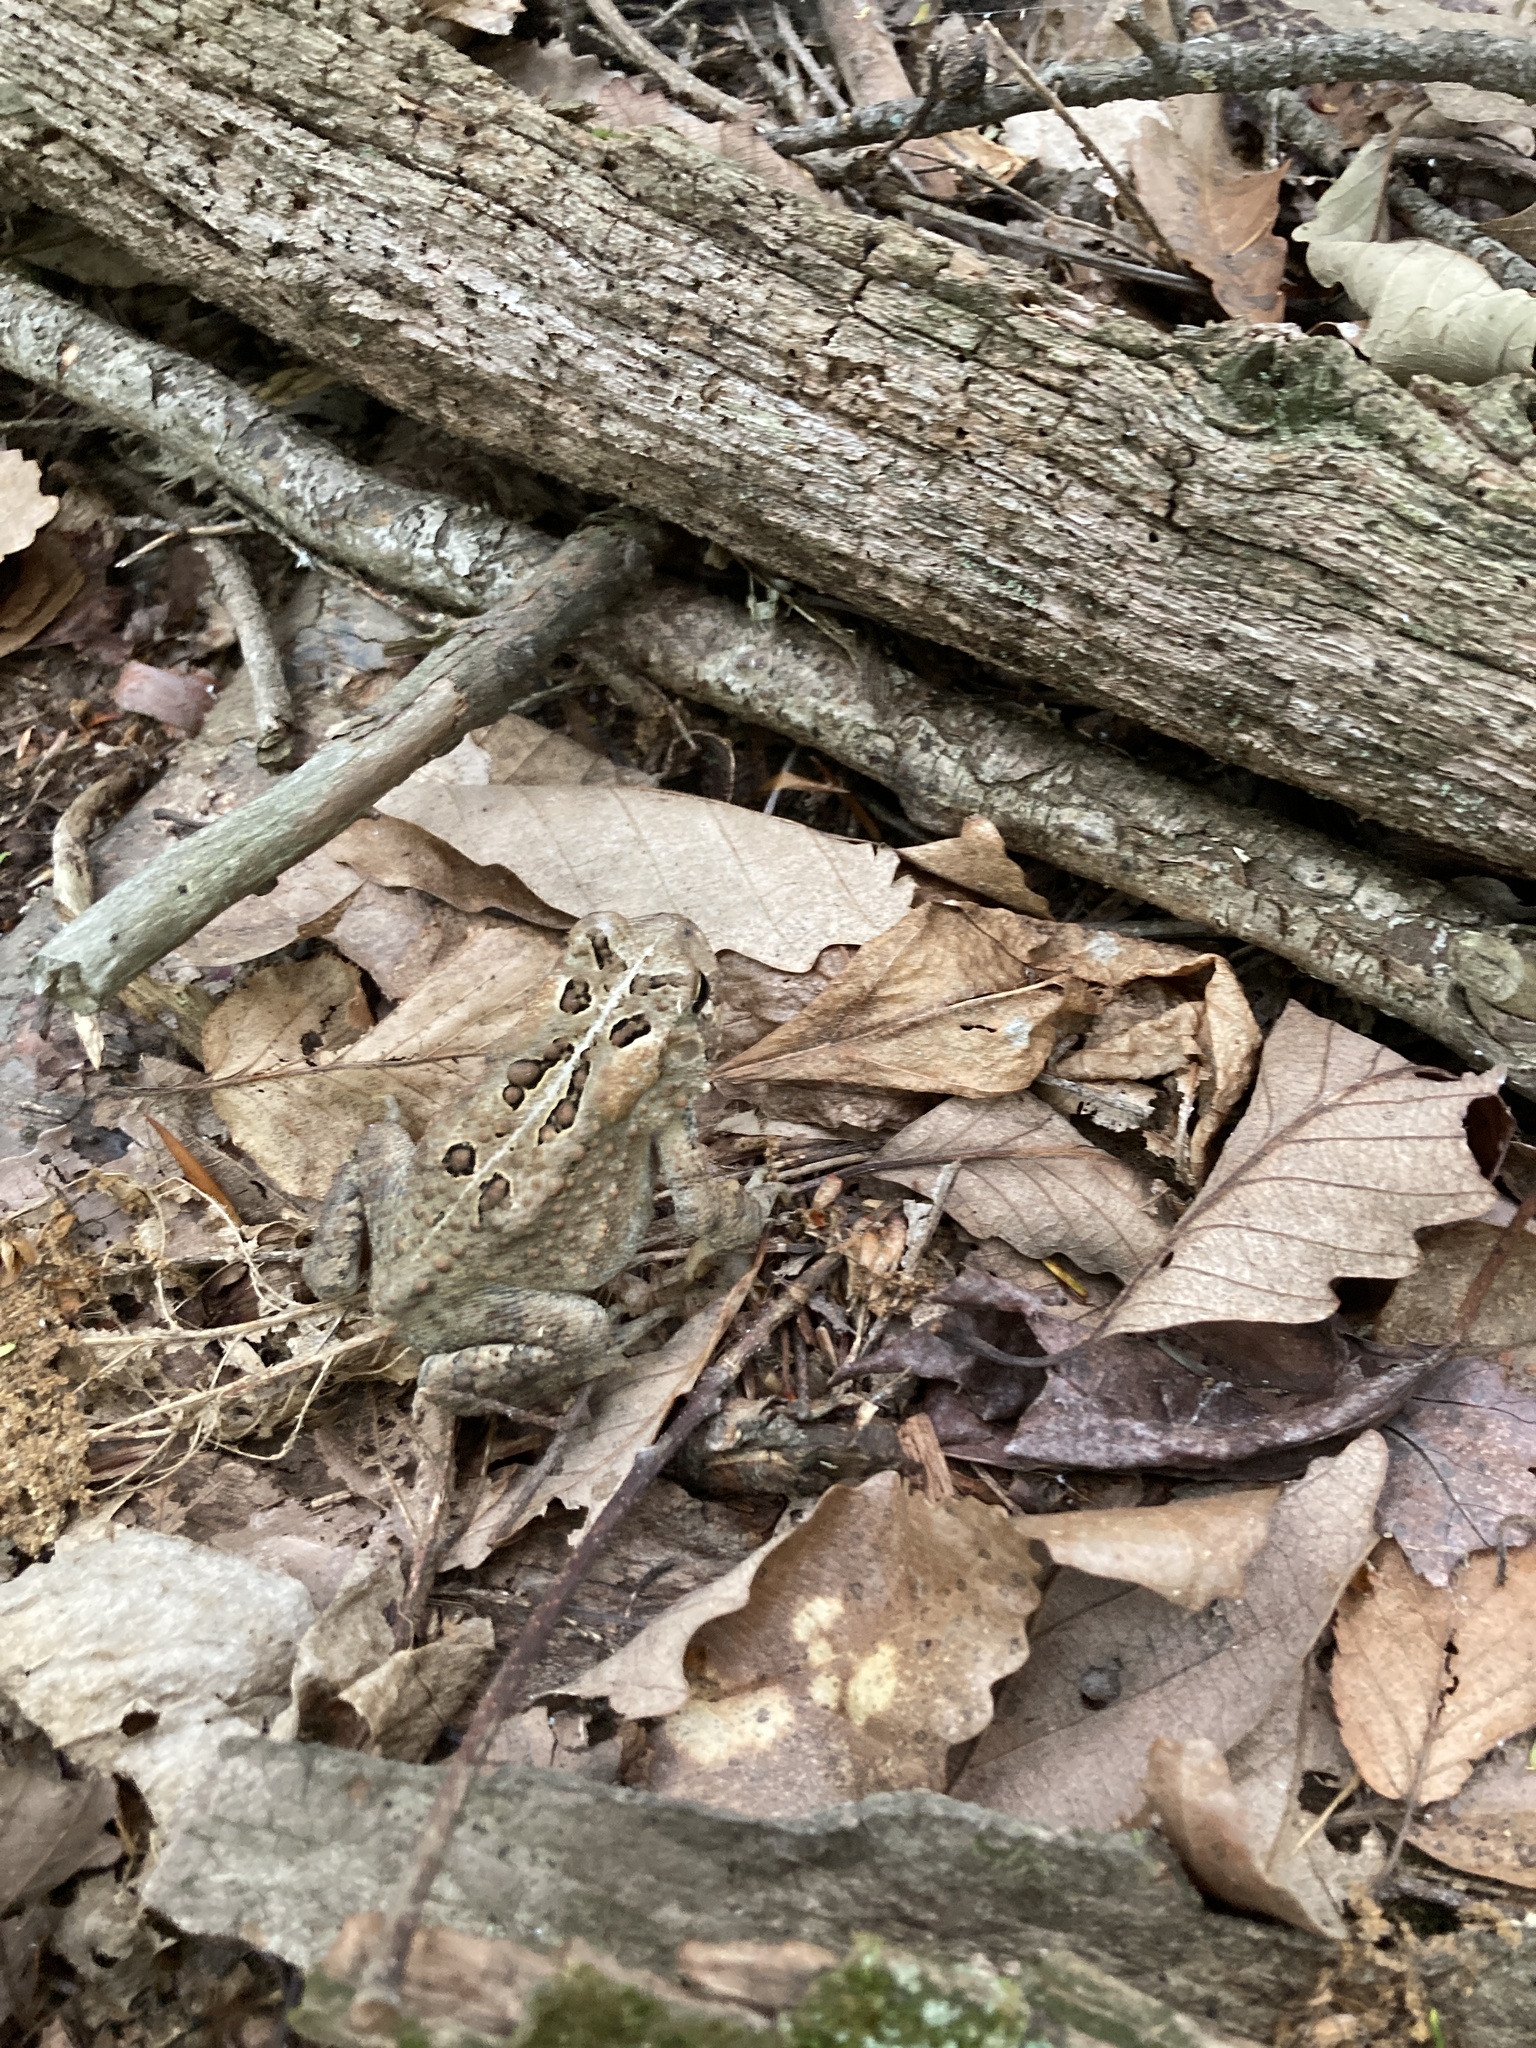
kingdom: Animalia
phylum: Chordata
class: Amphibia
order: Anura
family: Bufonidae
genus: Anaxyrus
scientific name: Anaxyrus americanus
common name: American toad
